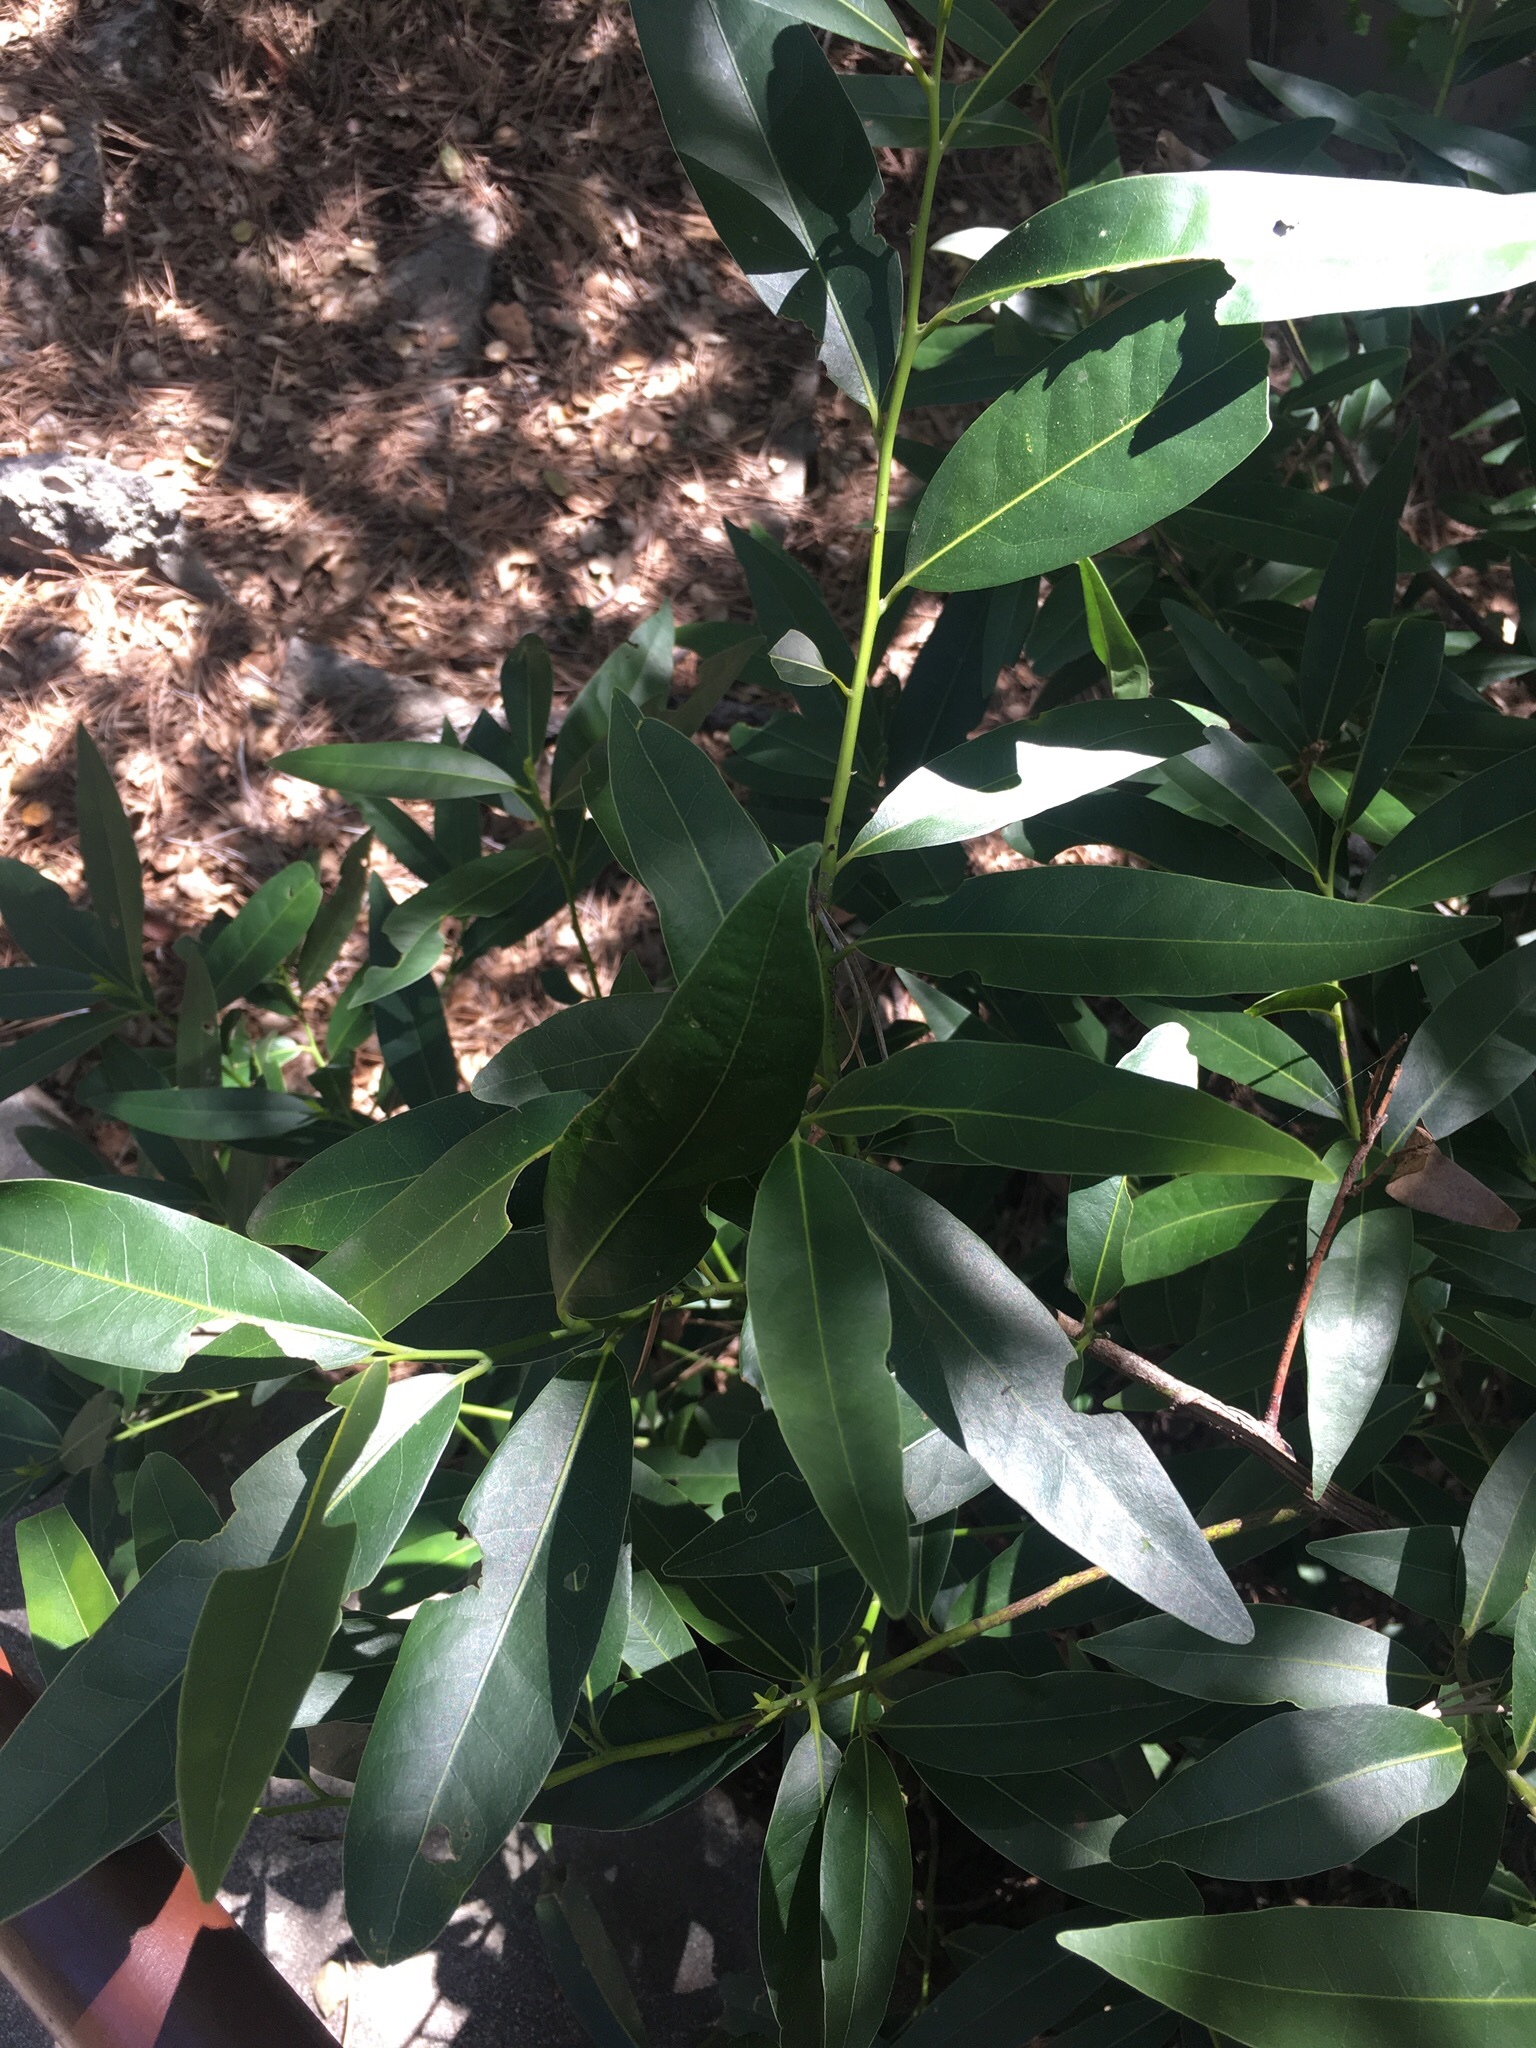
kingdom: Plantae
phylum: Tracheophyta
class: Magnoliopsida
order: Laurales
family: Lauraceae
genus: Umbellularia
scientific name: Umbellularia californica
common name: California bay
